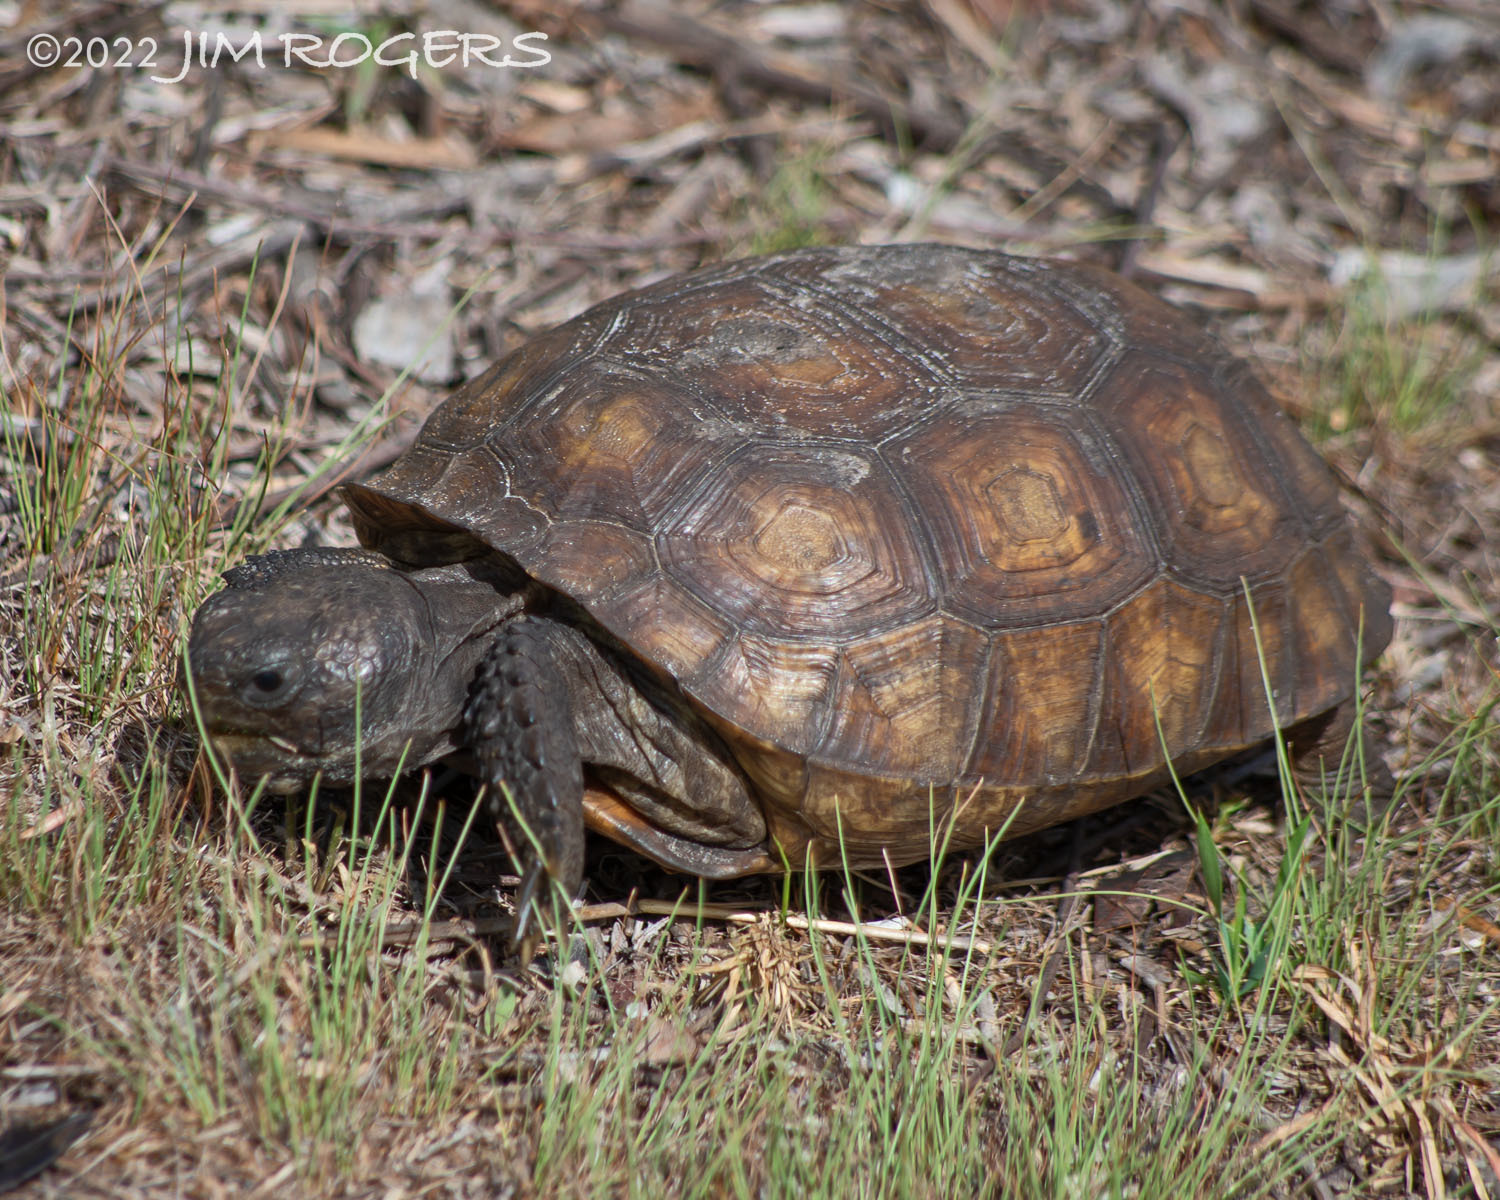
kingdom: Animalia
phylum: Chordata
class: Testudines
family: Testudinidae
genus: Gopherus
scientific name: Gopherus polyphemus
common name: Florida gopher tortoise
